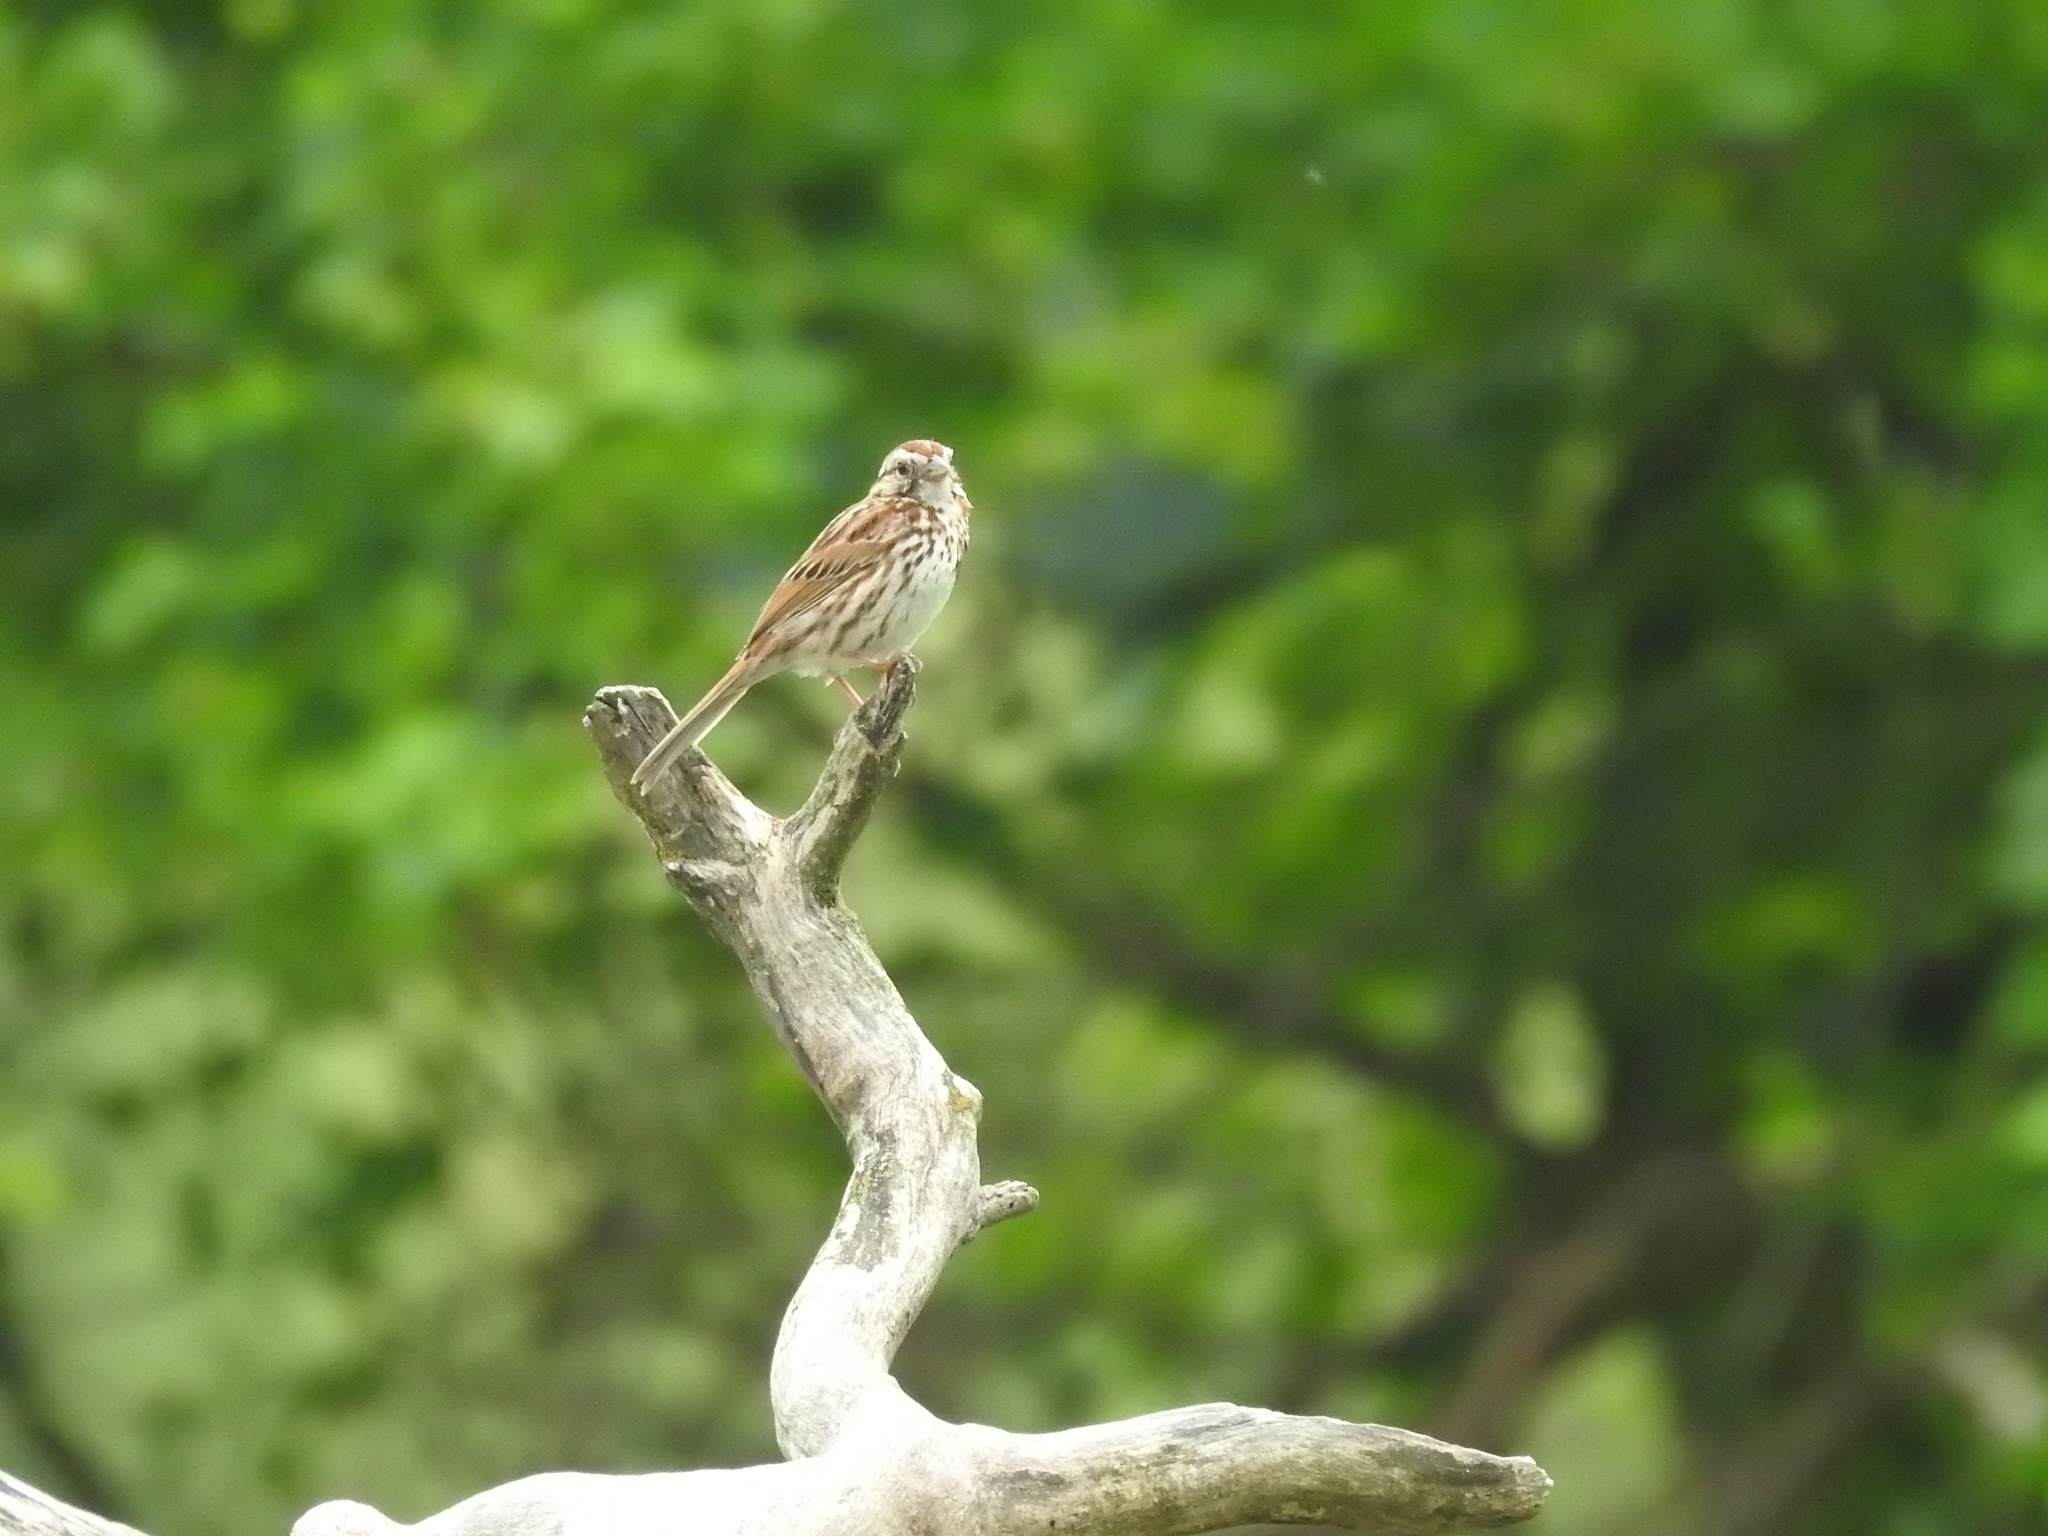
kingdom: Animalia
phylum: Chordata
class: Aves
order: Passeriformes
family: Passerellidae
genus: Melospiza
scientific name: Melospiza melodia
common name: Song sparrow
